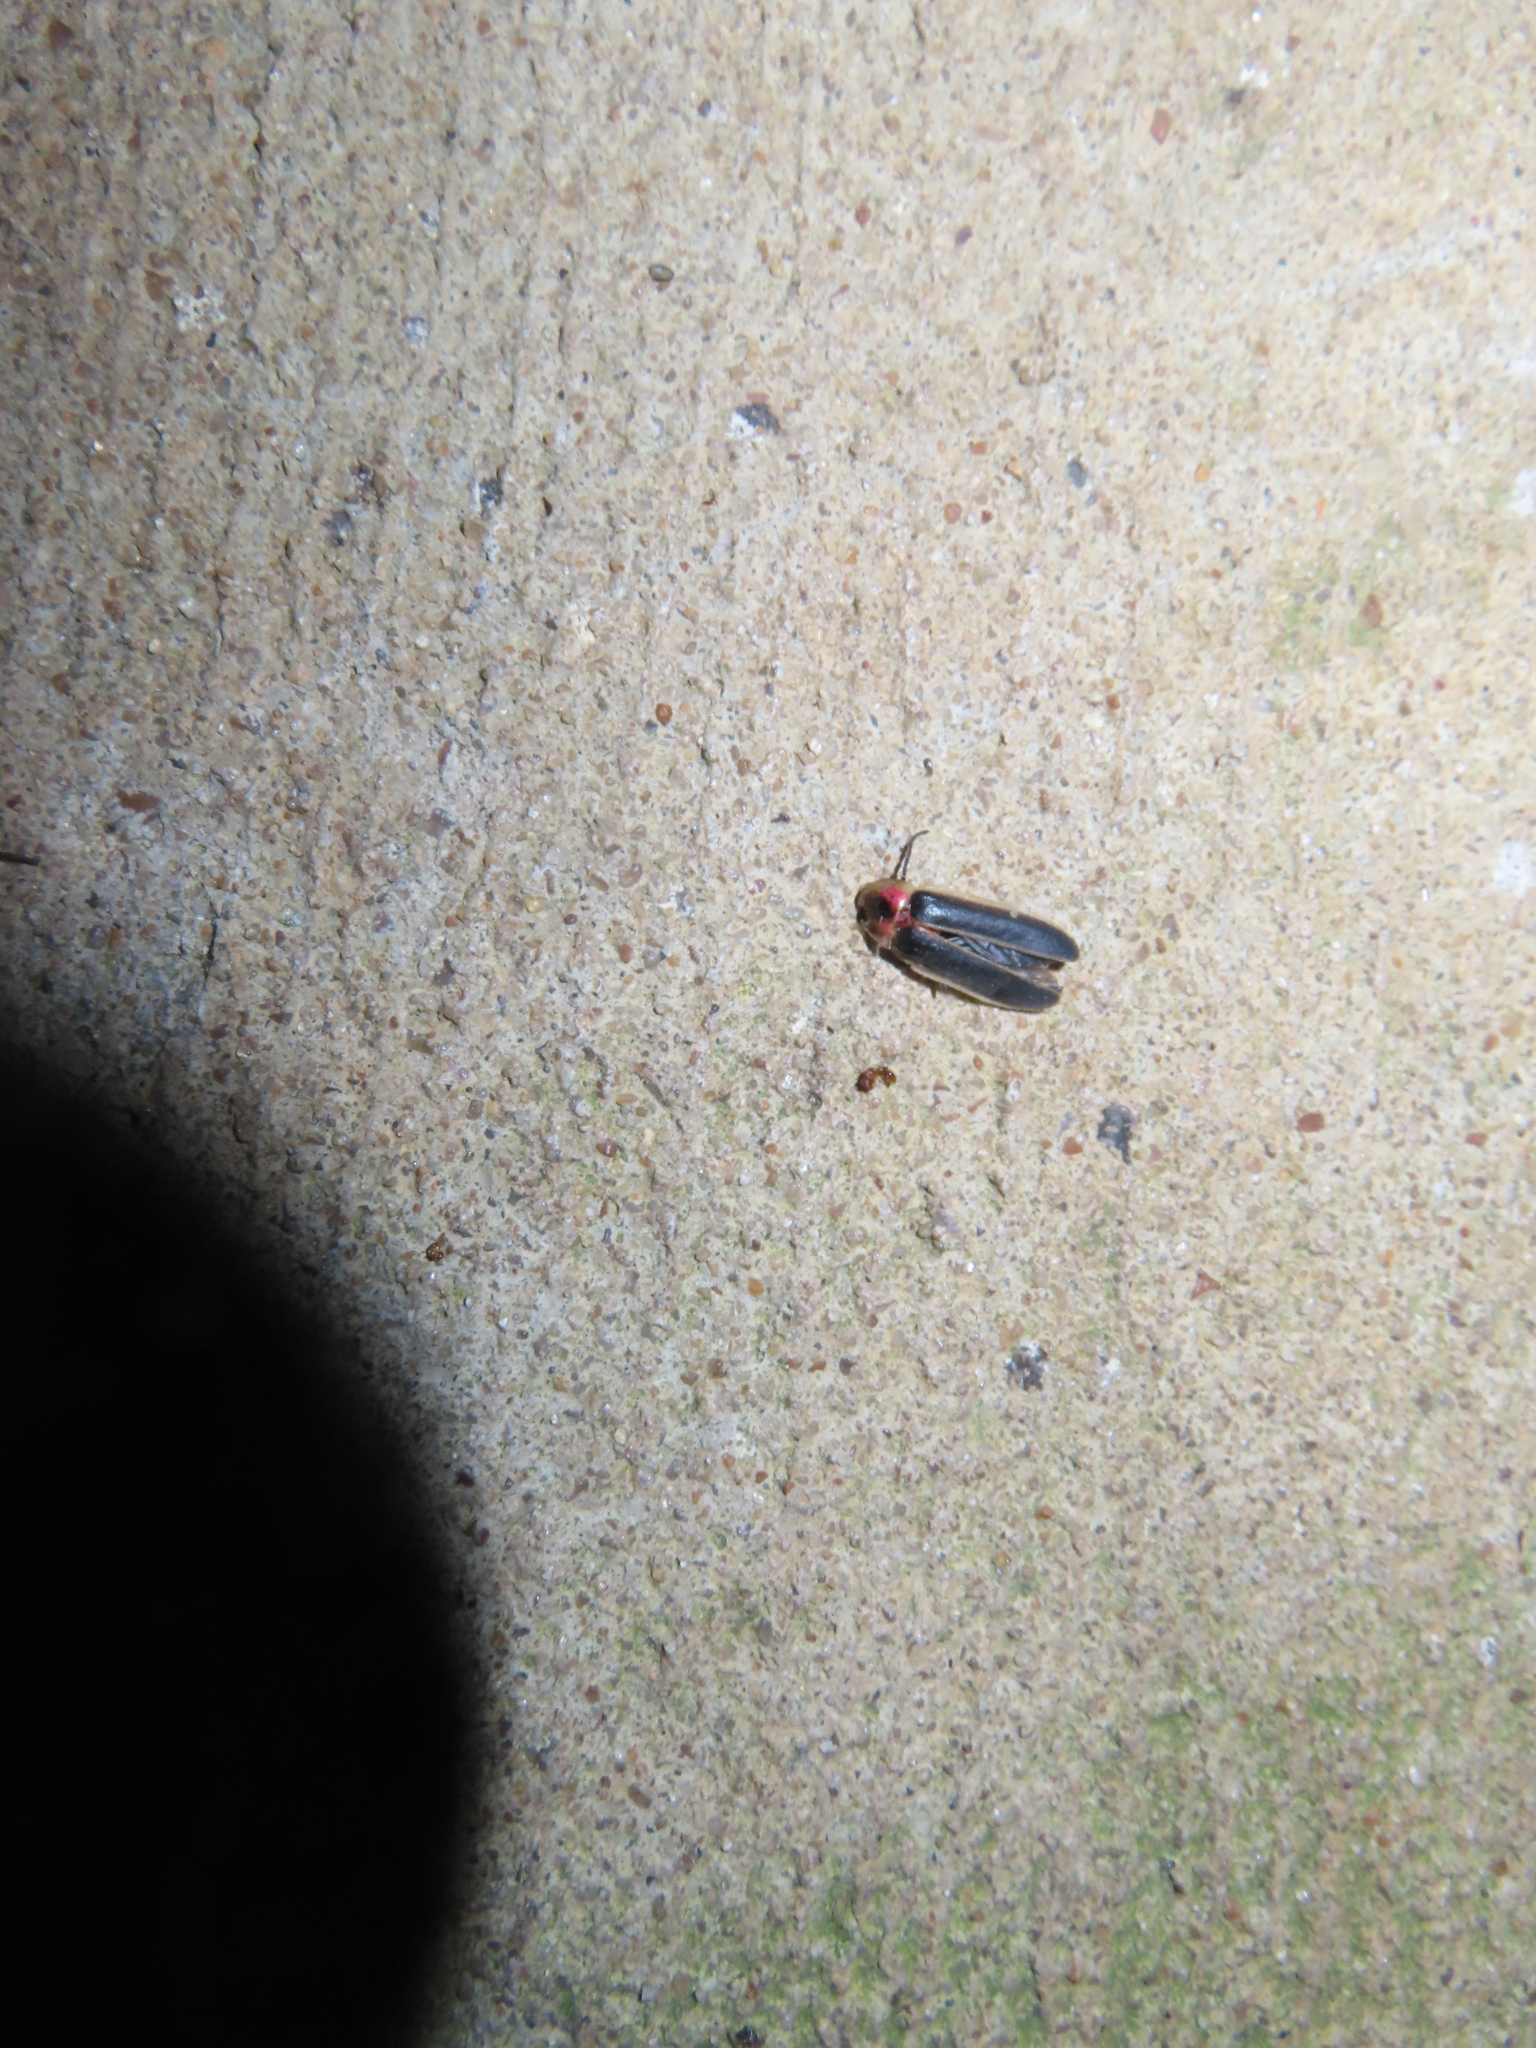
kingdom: Animalia
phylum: Arthropoda
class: Insecta
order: Coleoptera
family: Lampyridae
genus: Photinus
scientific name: Photinus pyralis
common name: Big dipper firefly
